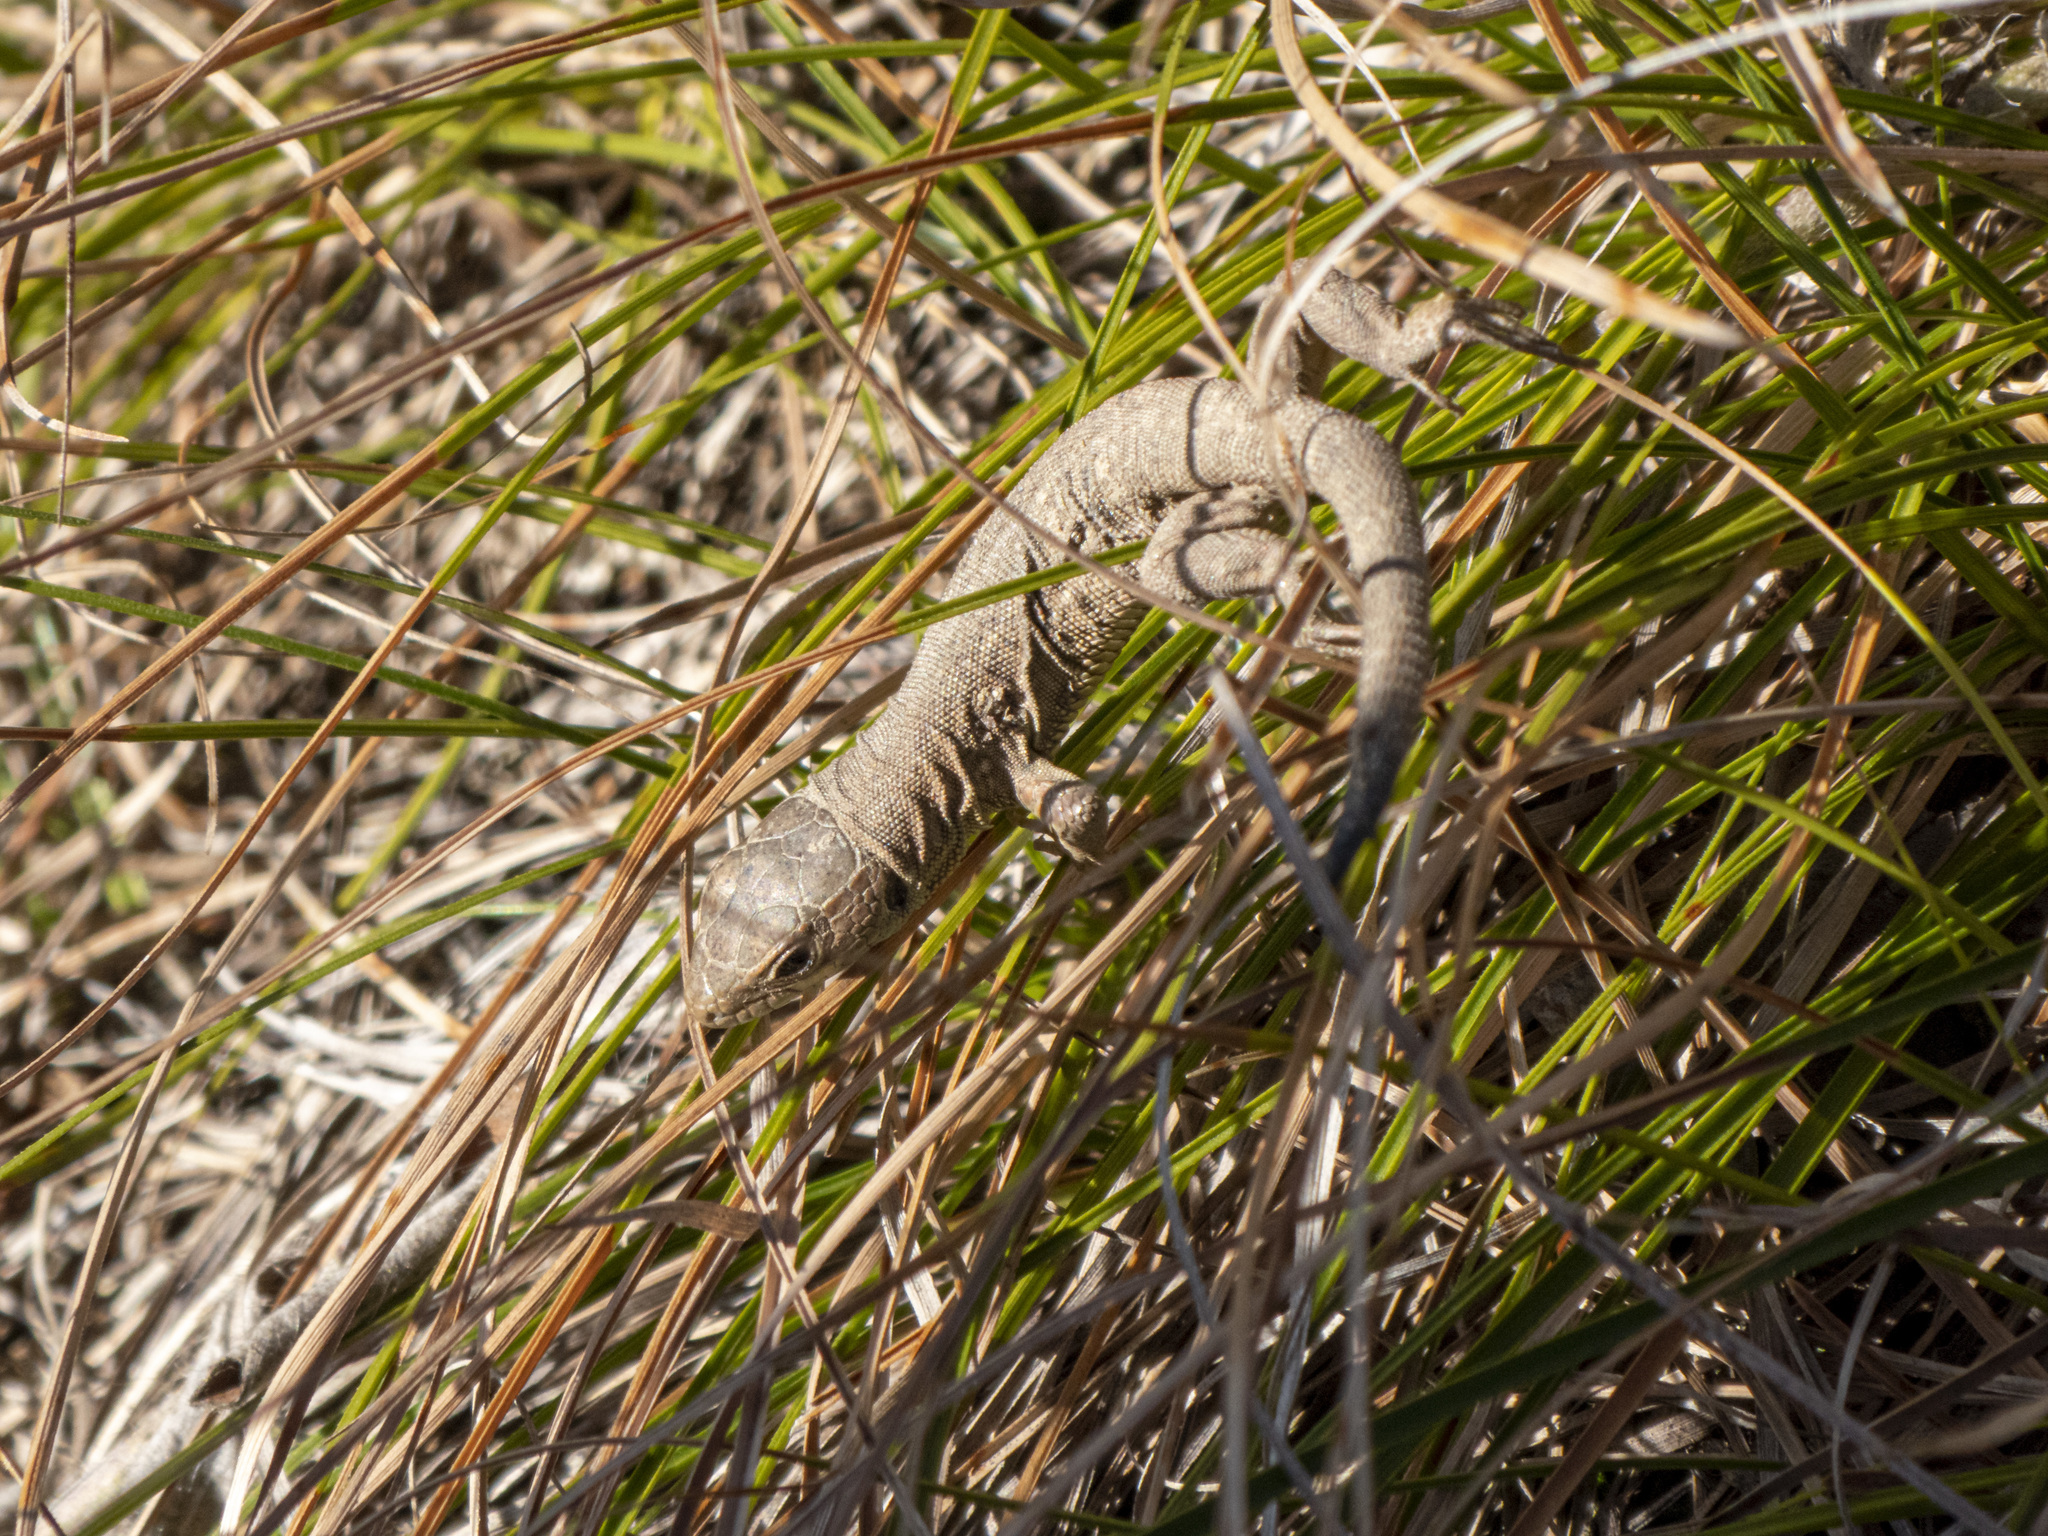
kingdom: Animalia
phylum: Chordata
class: Squamata
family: Lacertidae
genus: Lacerta
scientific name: Lacerta viridis
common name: European green lizard
